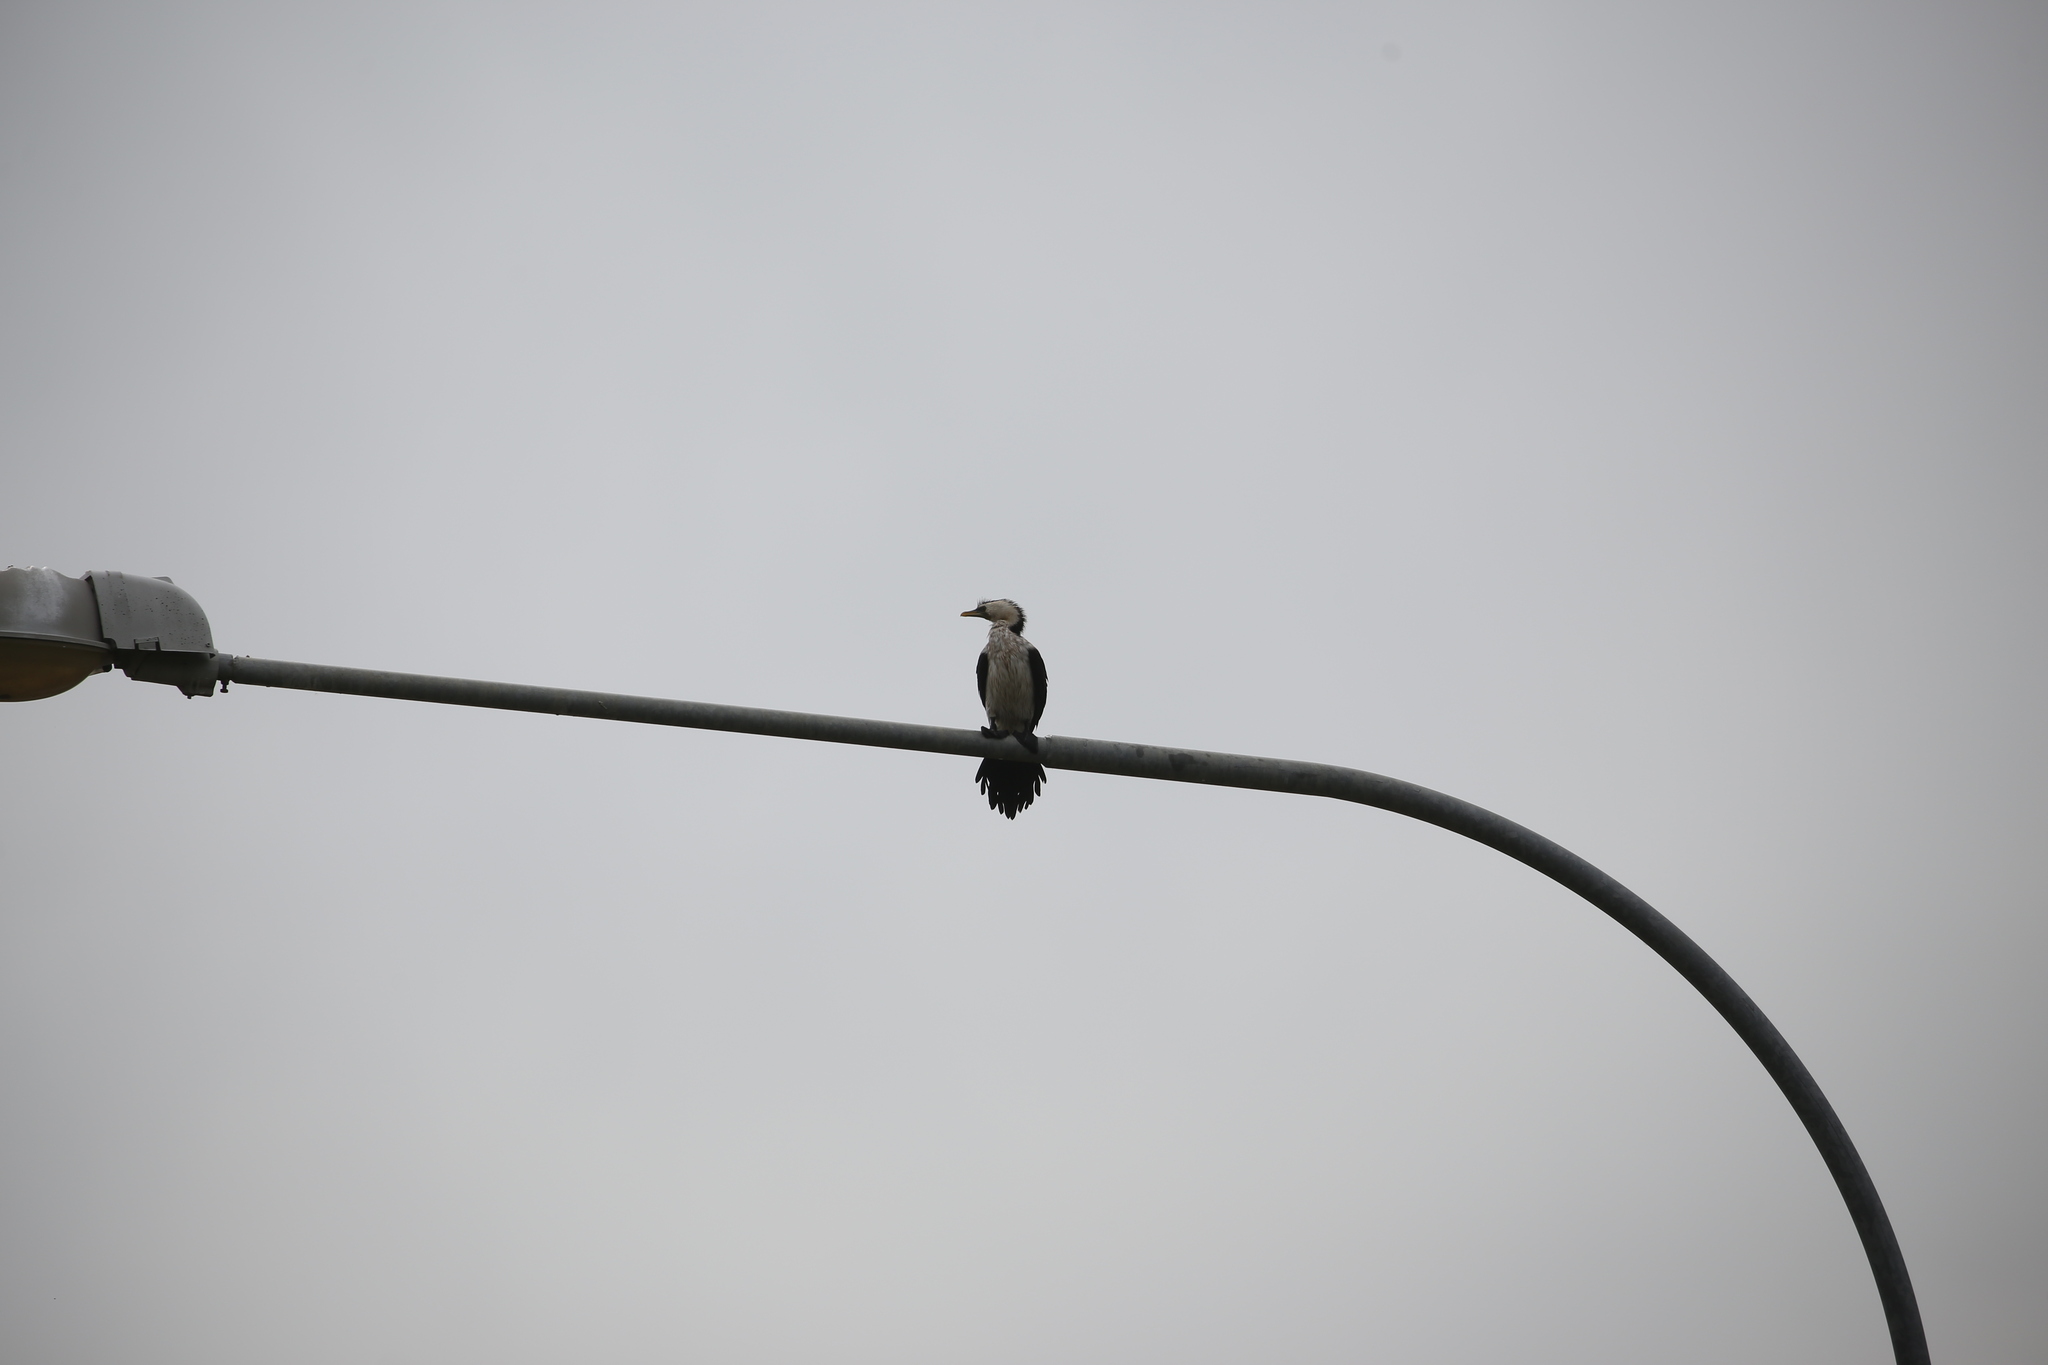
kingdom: Animalia
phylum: Chordata
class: Aves
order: Suliformes
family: Phalacrocoracidae
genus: Microcarbo
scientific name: Microcarbo melanoleucos
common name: Little pied cormorant
